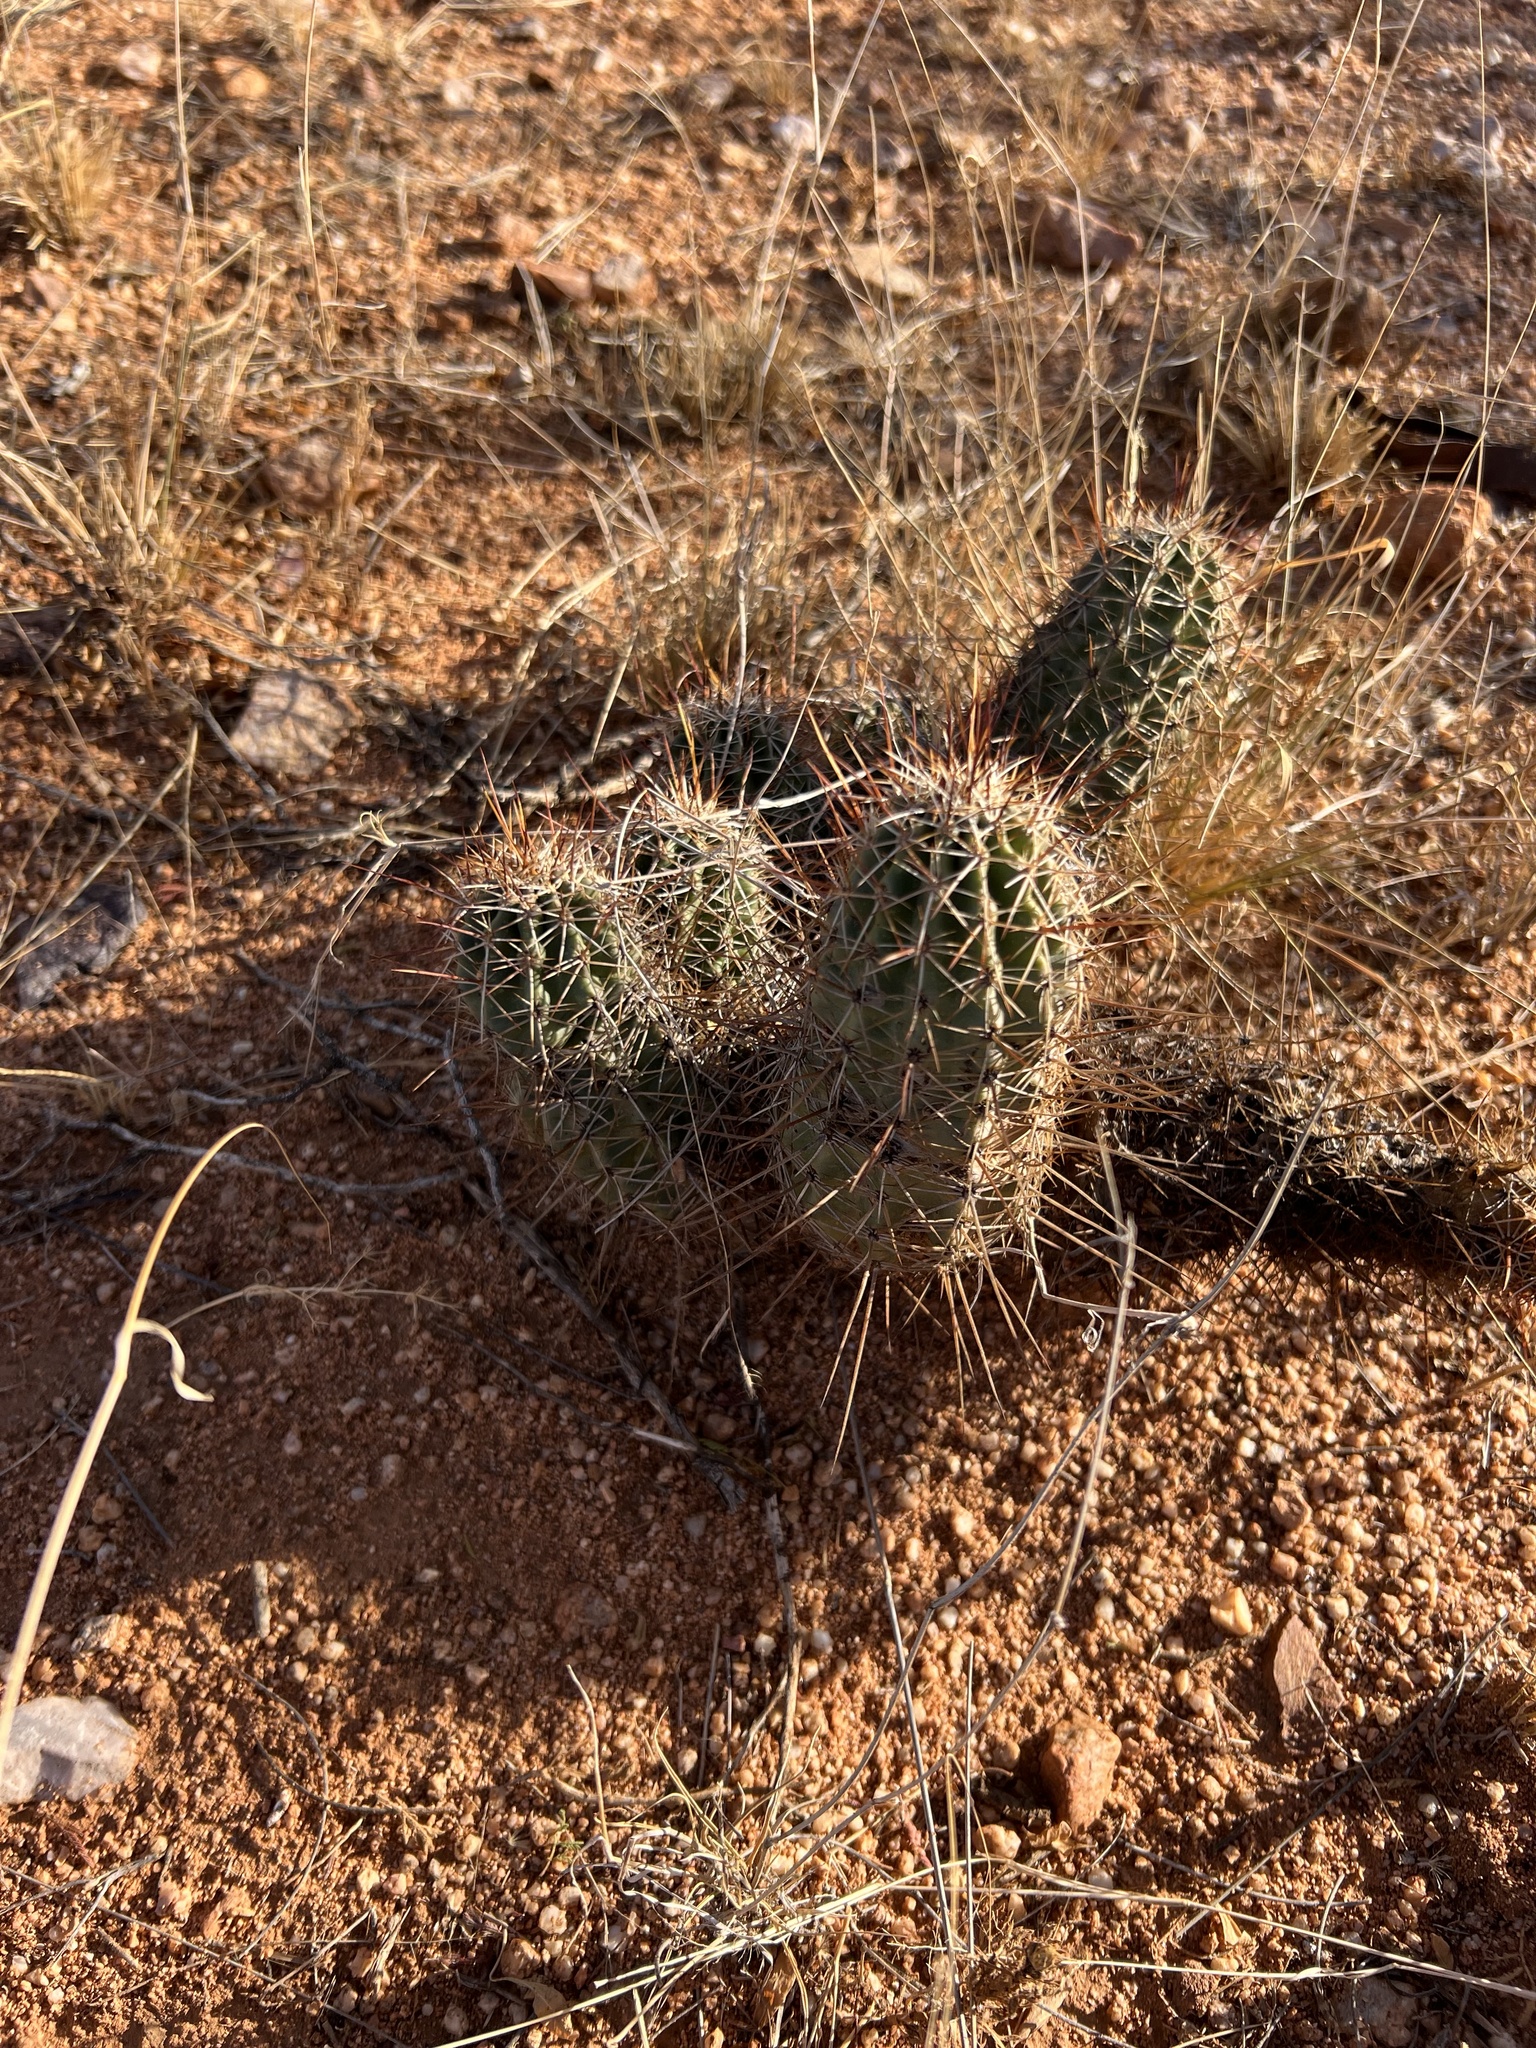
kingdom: Plantae
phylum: Tracheophyta
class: Magnoliopsida
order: Caryophyllales
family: Cactaceae
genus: Echinocereus
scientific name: Echinocereus fasciculatus
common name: Bundle hedgehog
